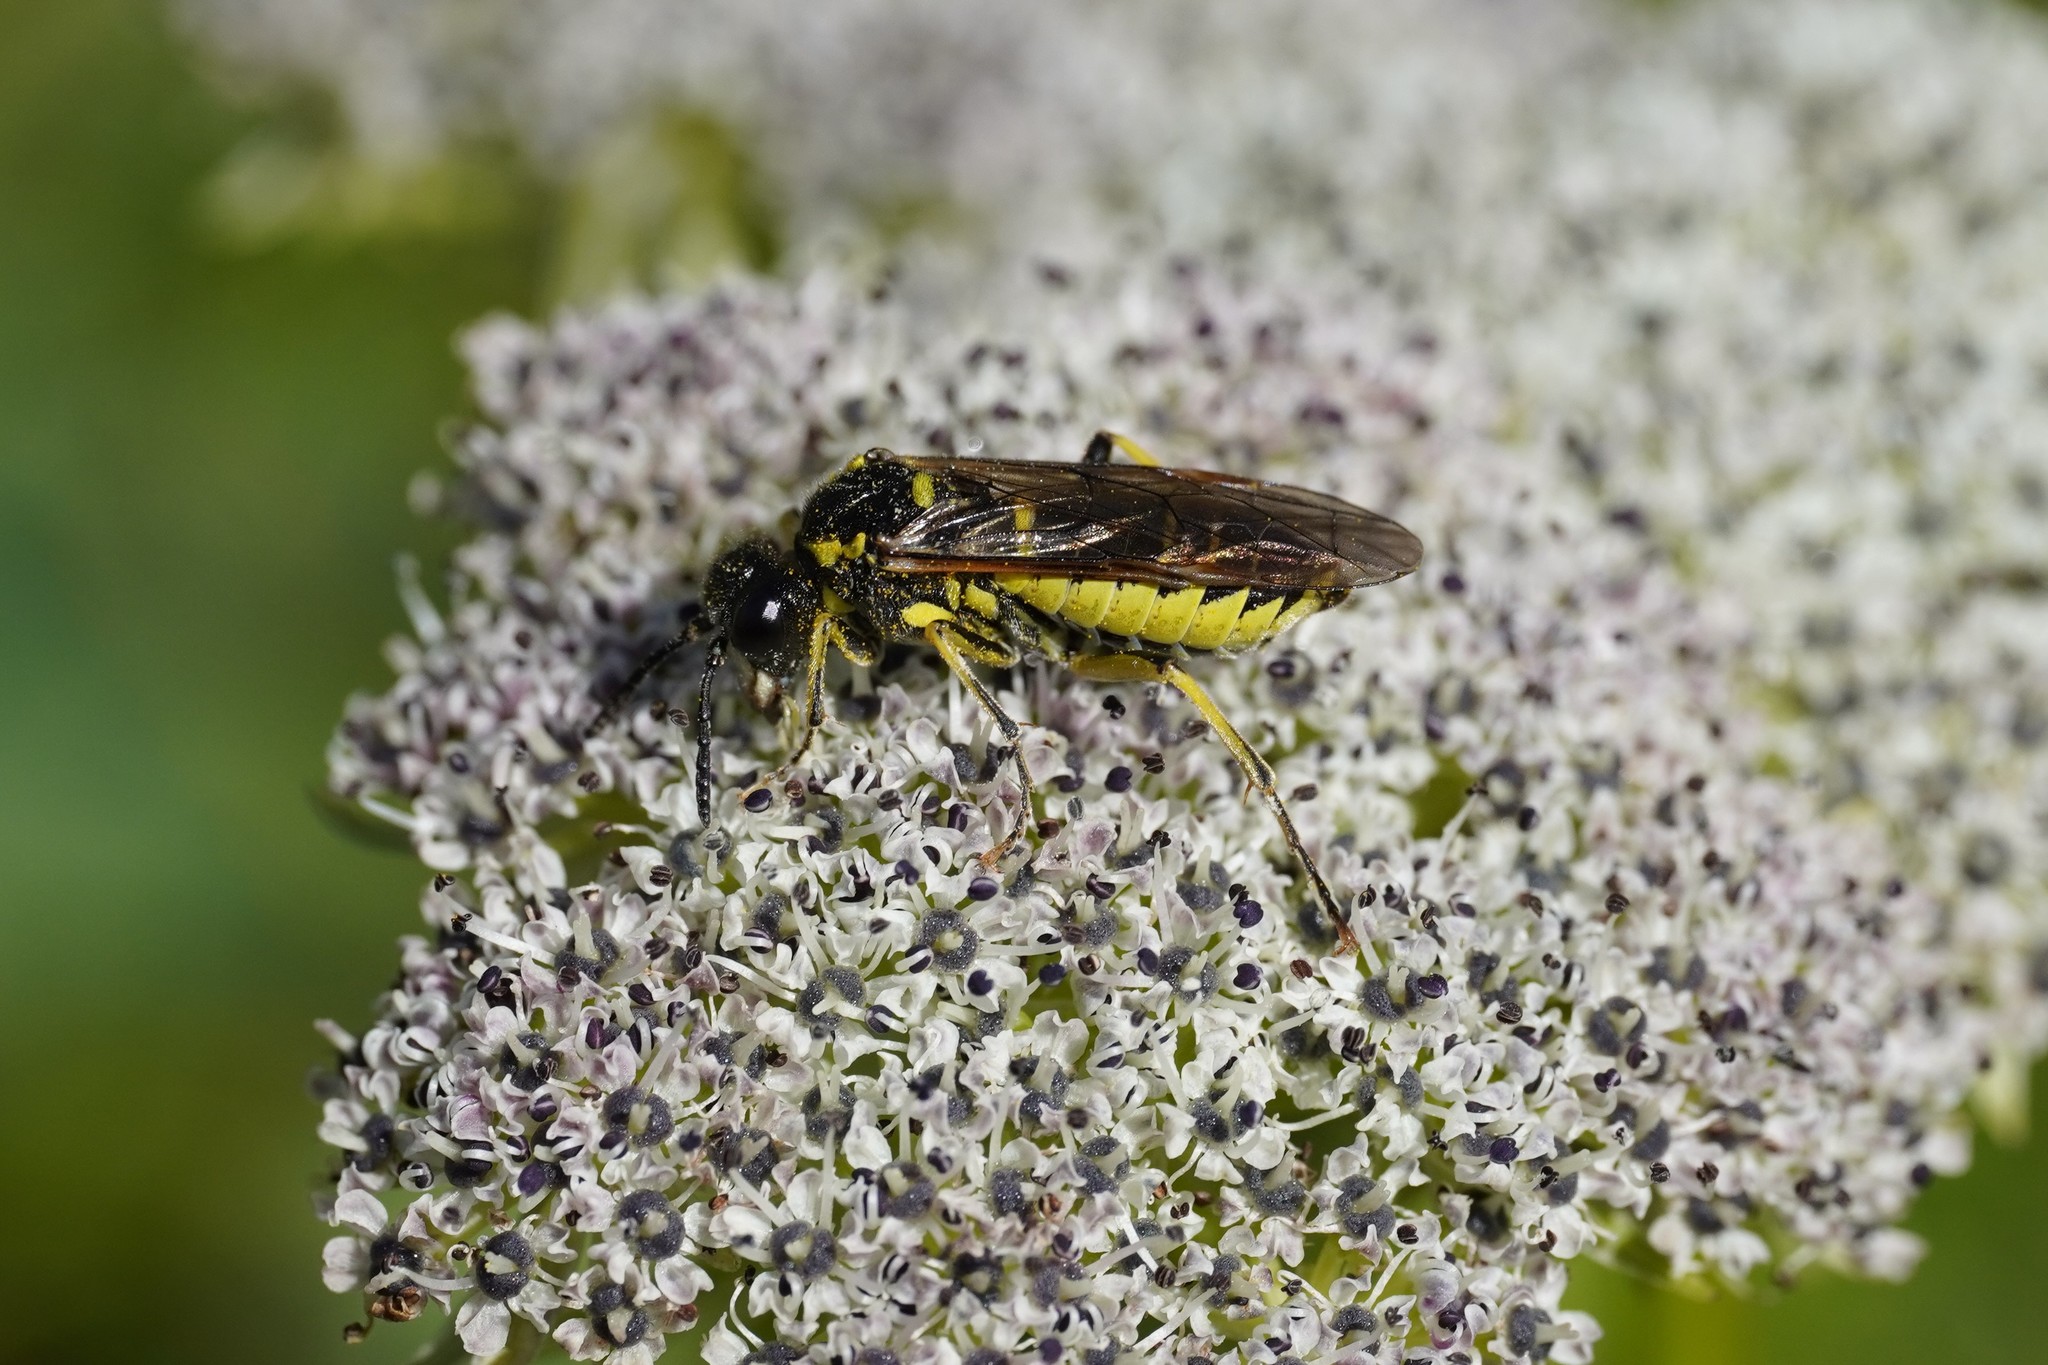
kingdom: Animalia
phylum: Arthropoda
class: Insecta
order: Hymenoptera
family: Tenthredinidae
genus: Tenthredo
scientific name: Tenthredo arcuata
